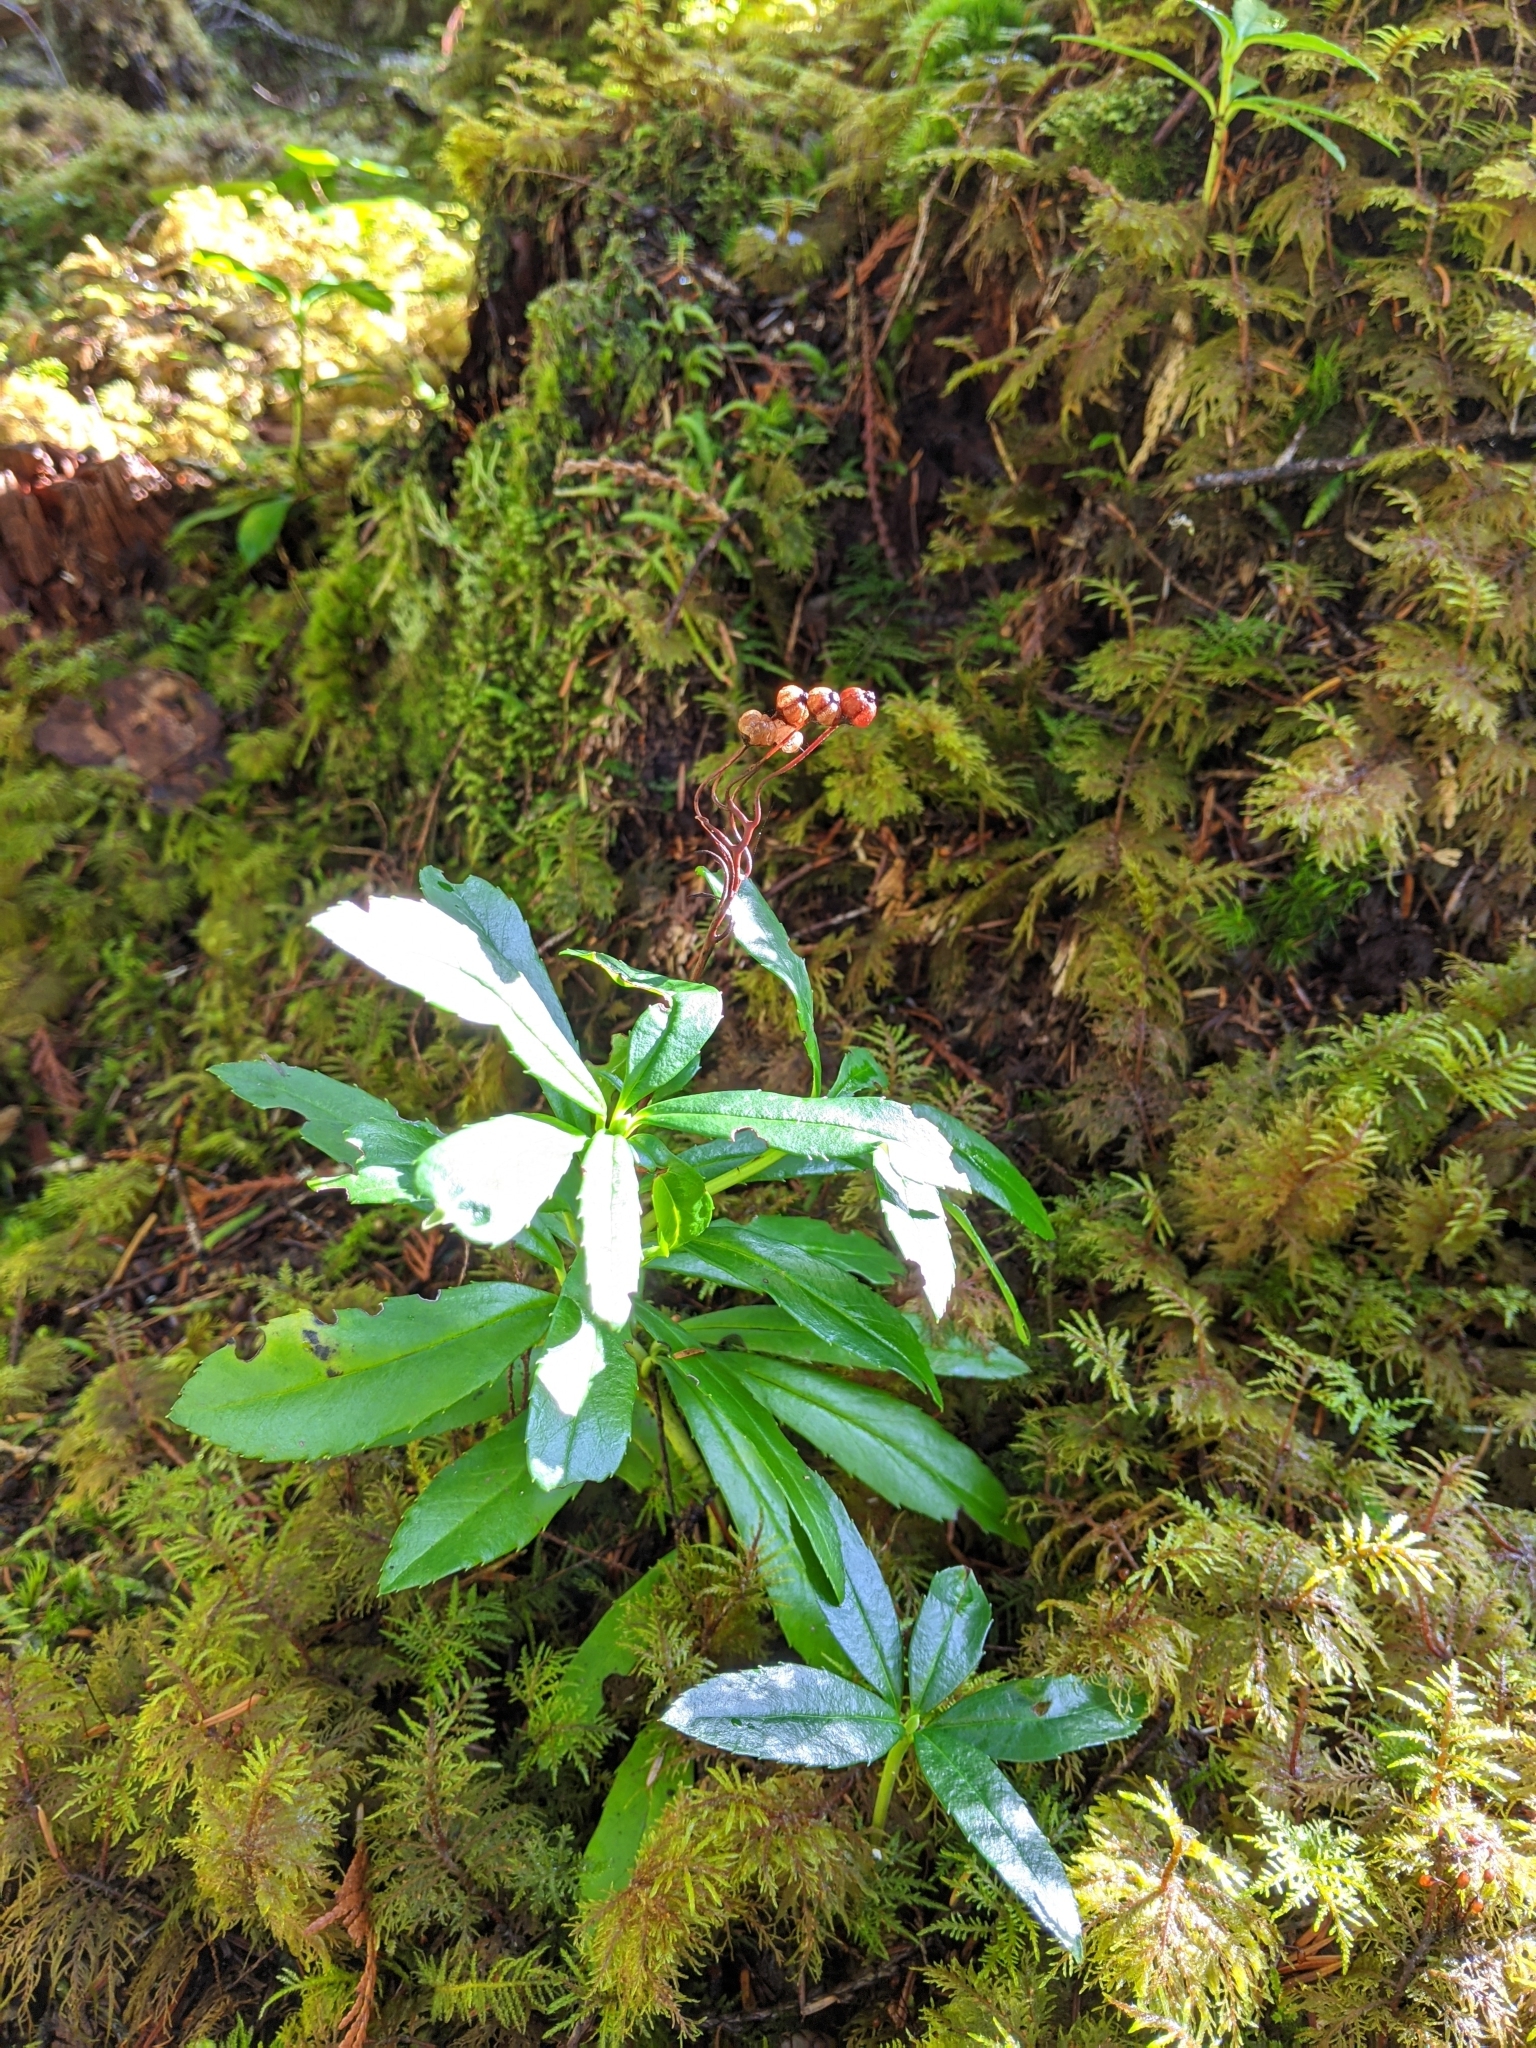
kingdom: Plantae
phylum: Tracheophyta
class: Magnoliopsida
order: Ericales
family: Ericaceae
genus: Chimaphila
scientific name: Chimaphila umbellata
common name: Pipsissewa
